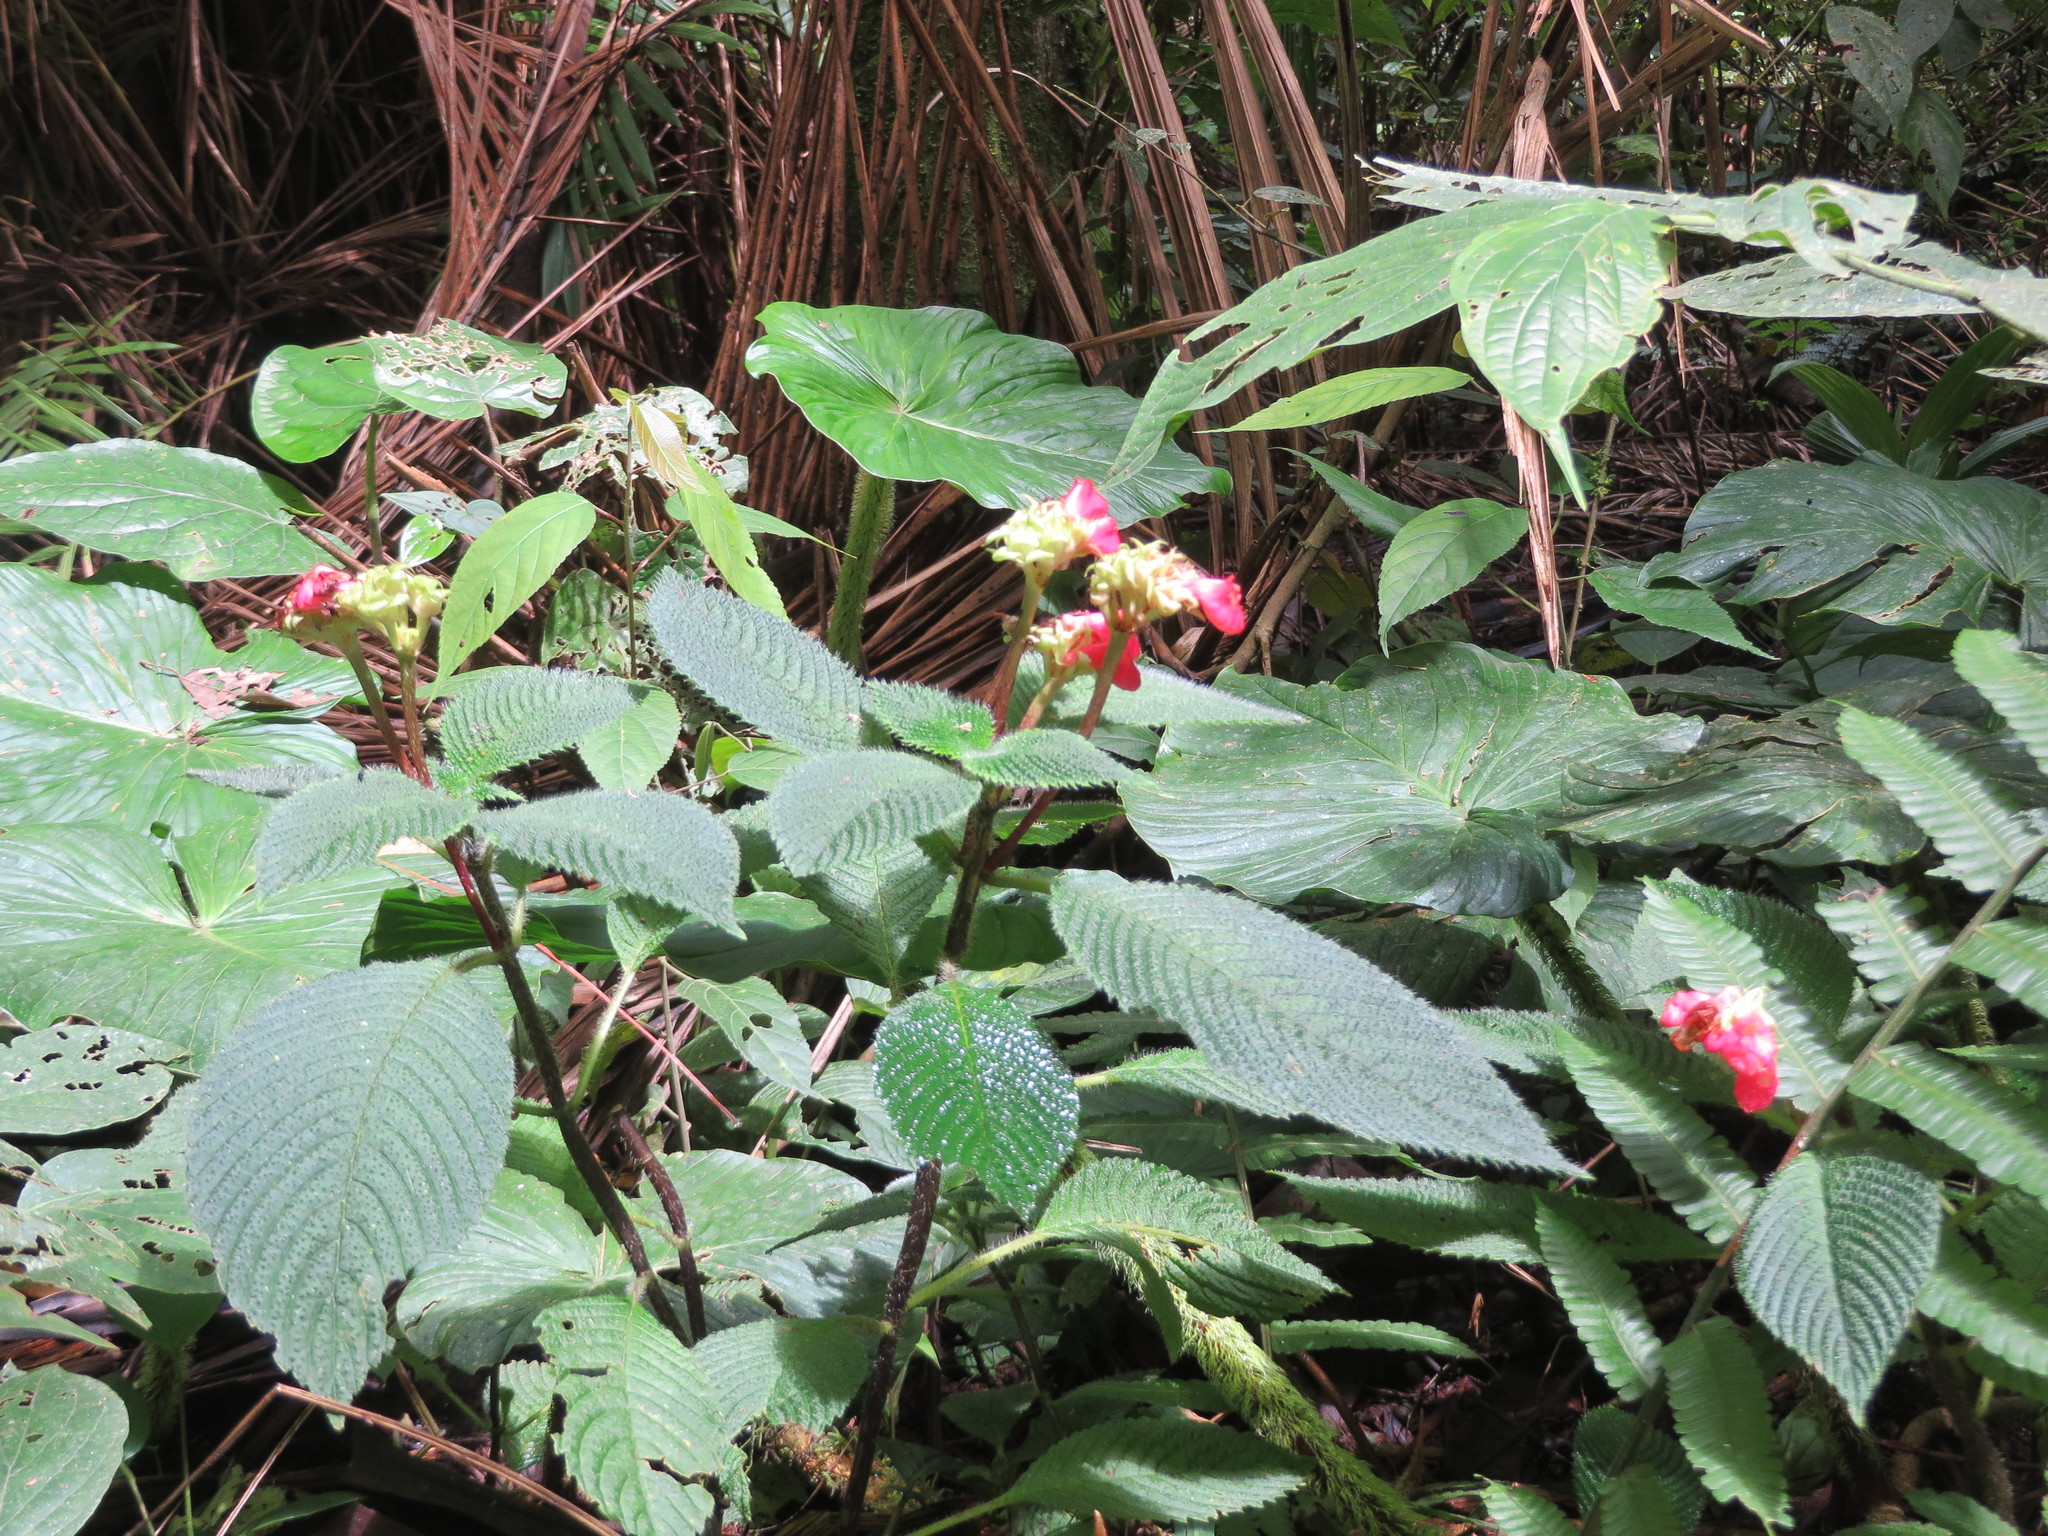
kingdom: Plantae
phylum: Tracheophyta
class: Magnoliopsida
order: Lamiales
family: Gesneriaceae
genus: Gasteranthus
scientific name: Gasteranthus quitensis
